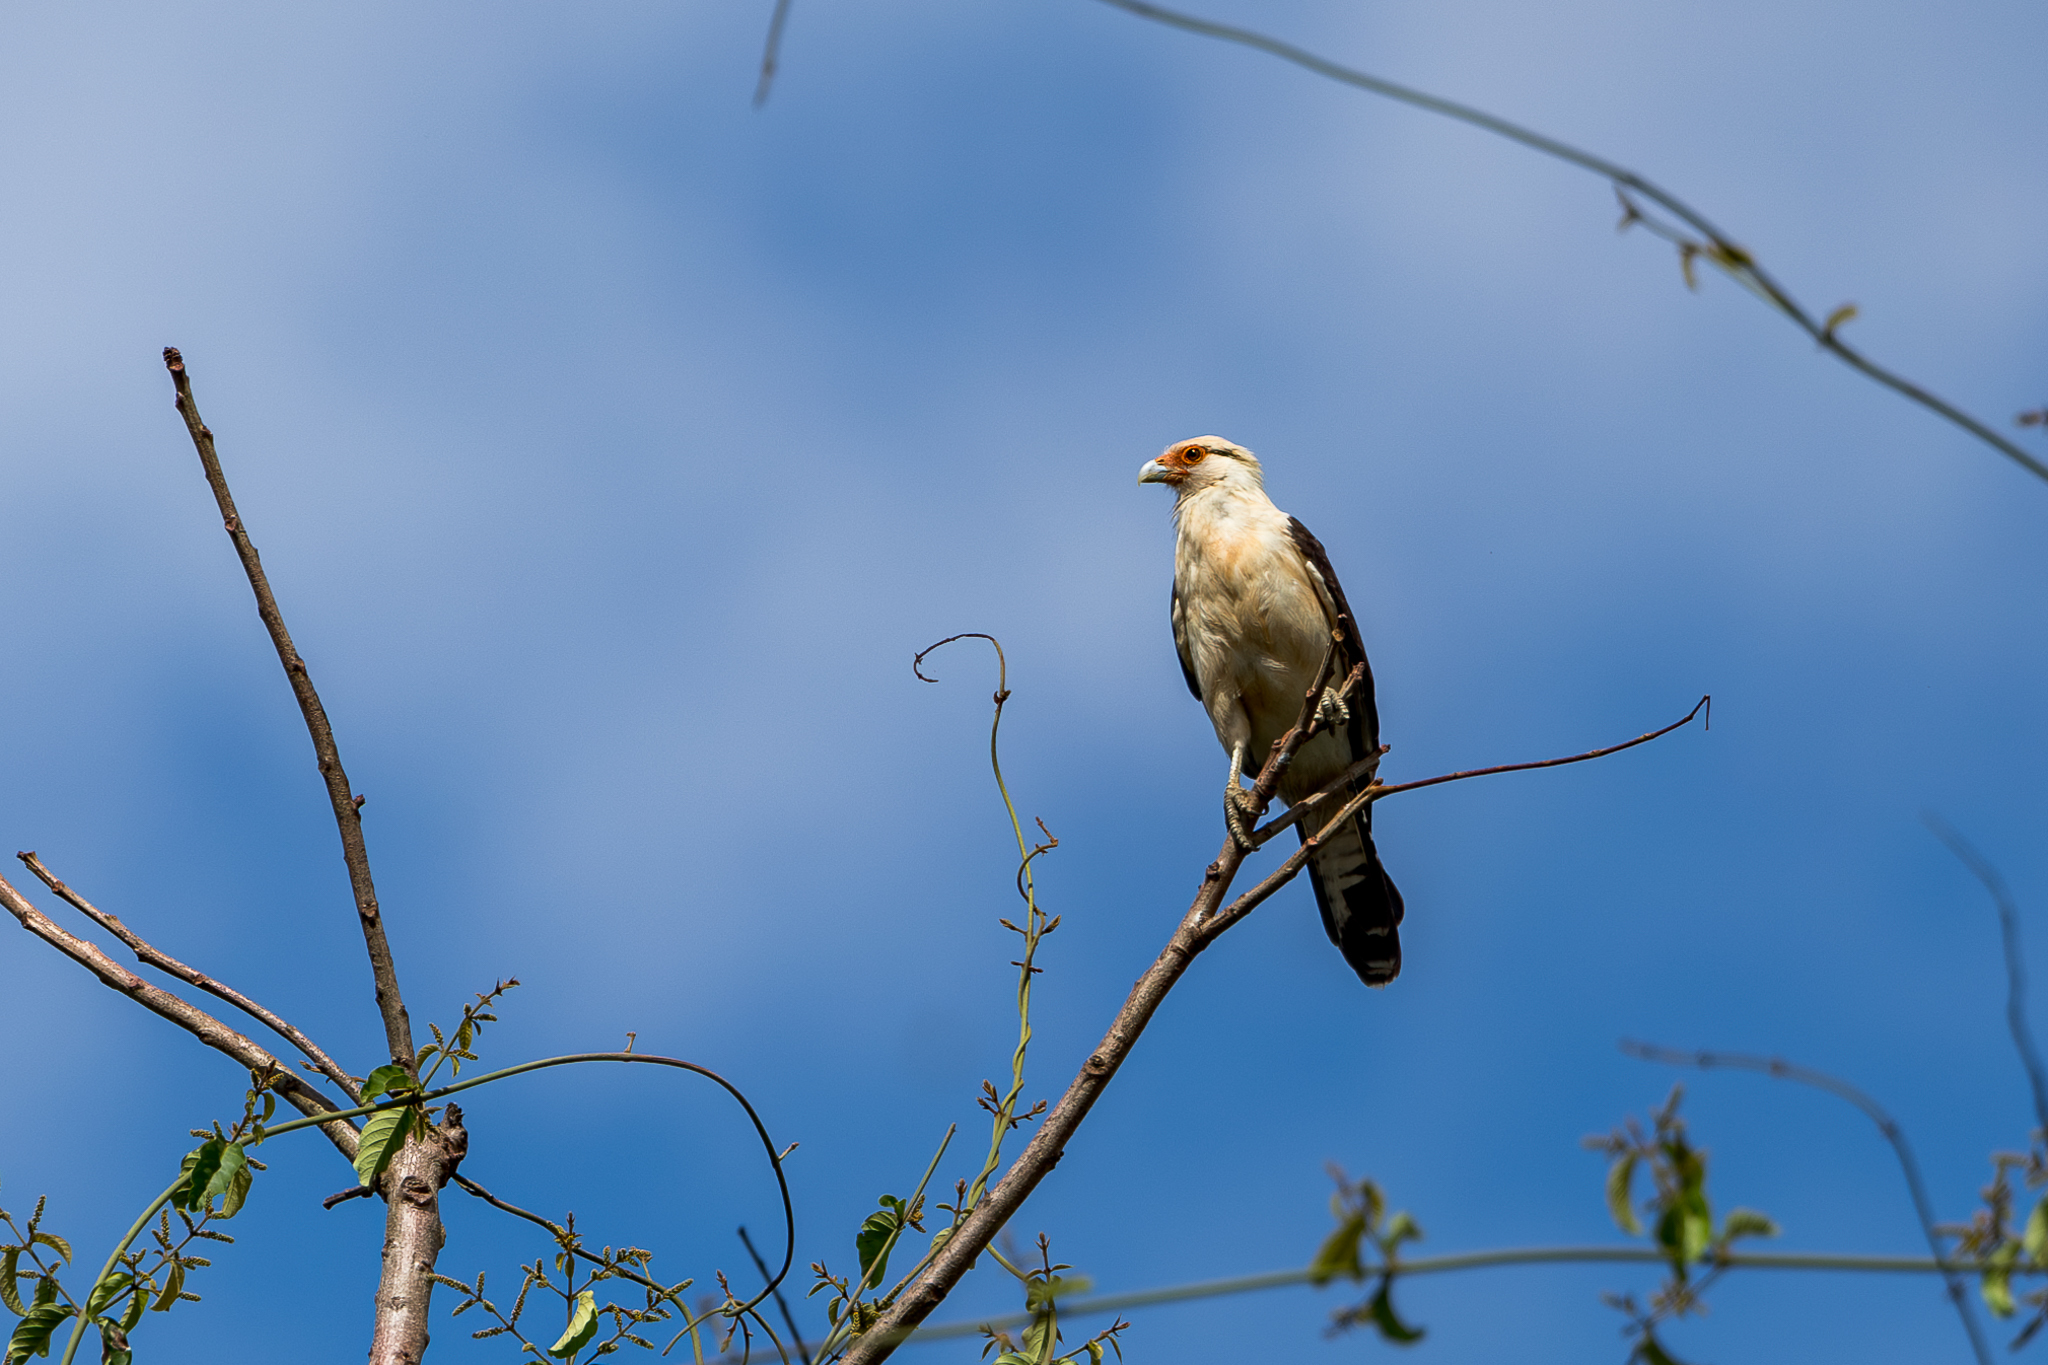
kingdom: Animalia
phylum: Chordata
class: Aves
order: Falconiformes
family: Falconidae
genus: Daptrius
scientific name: Daptrius
